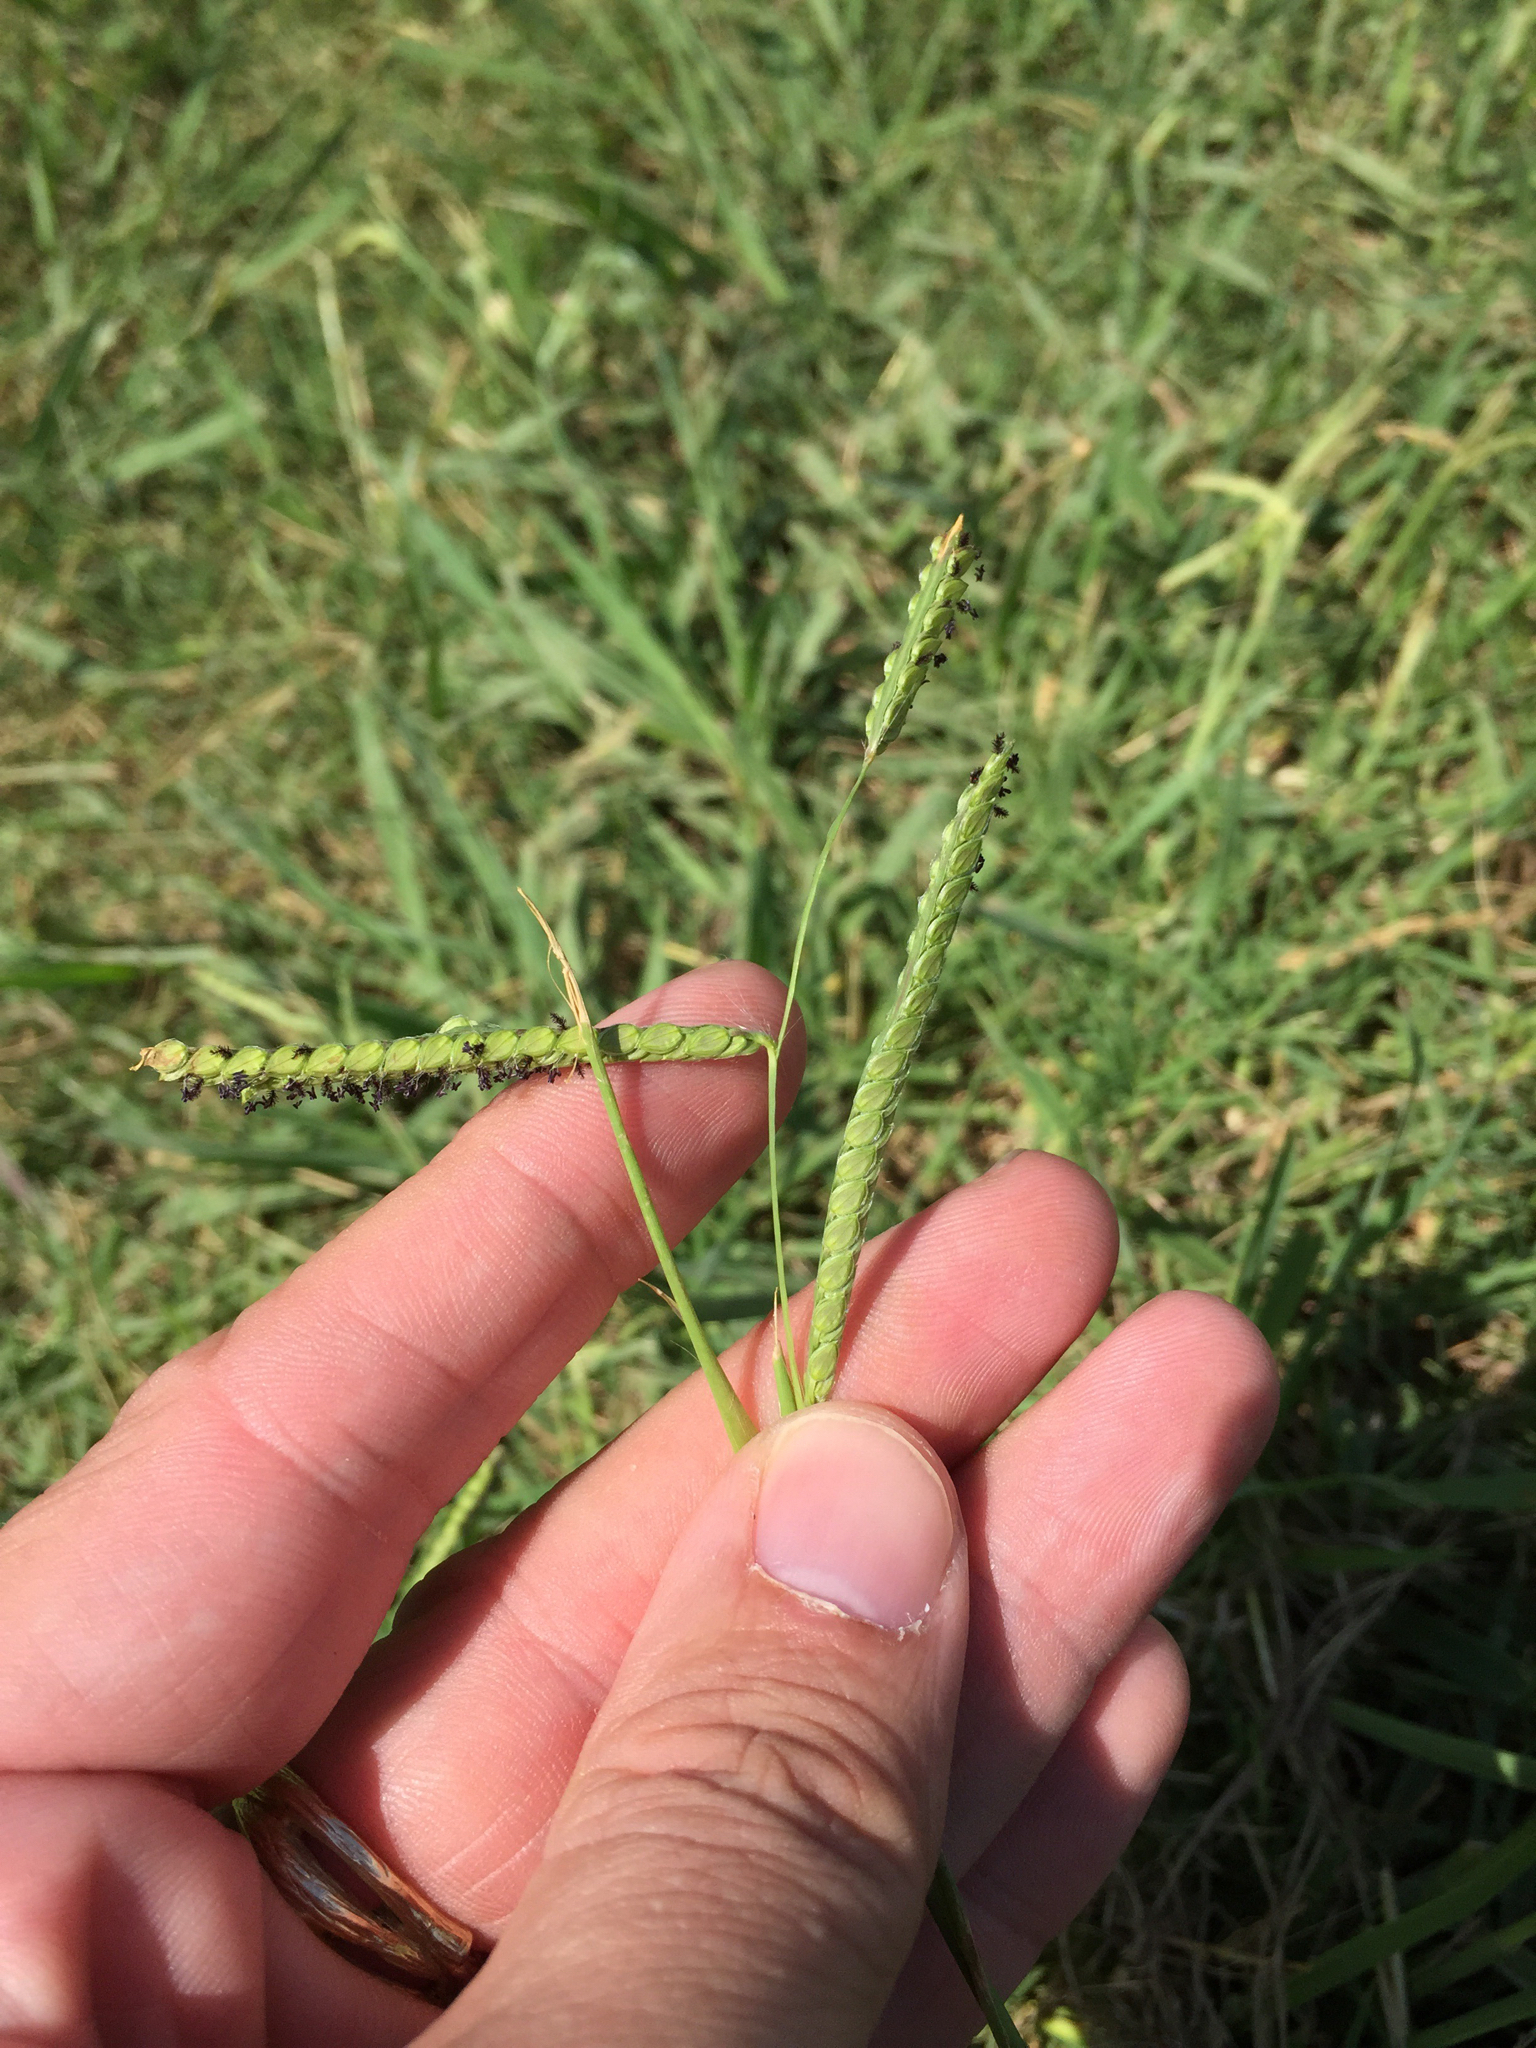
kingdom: Plantae
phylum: Tracheophyta
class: Liliopsida
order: Poales
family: Poaceae
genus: Paspalum
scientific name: Paspalum dilatatum
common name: Dallisgrass
